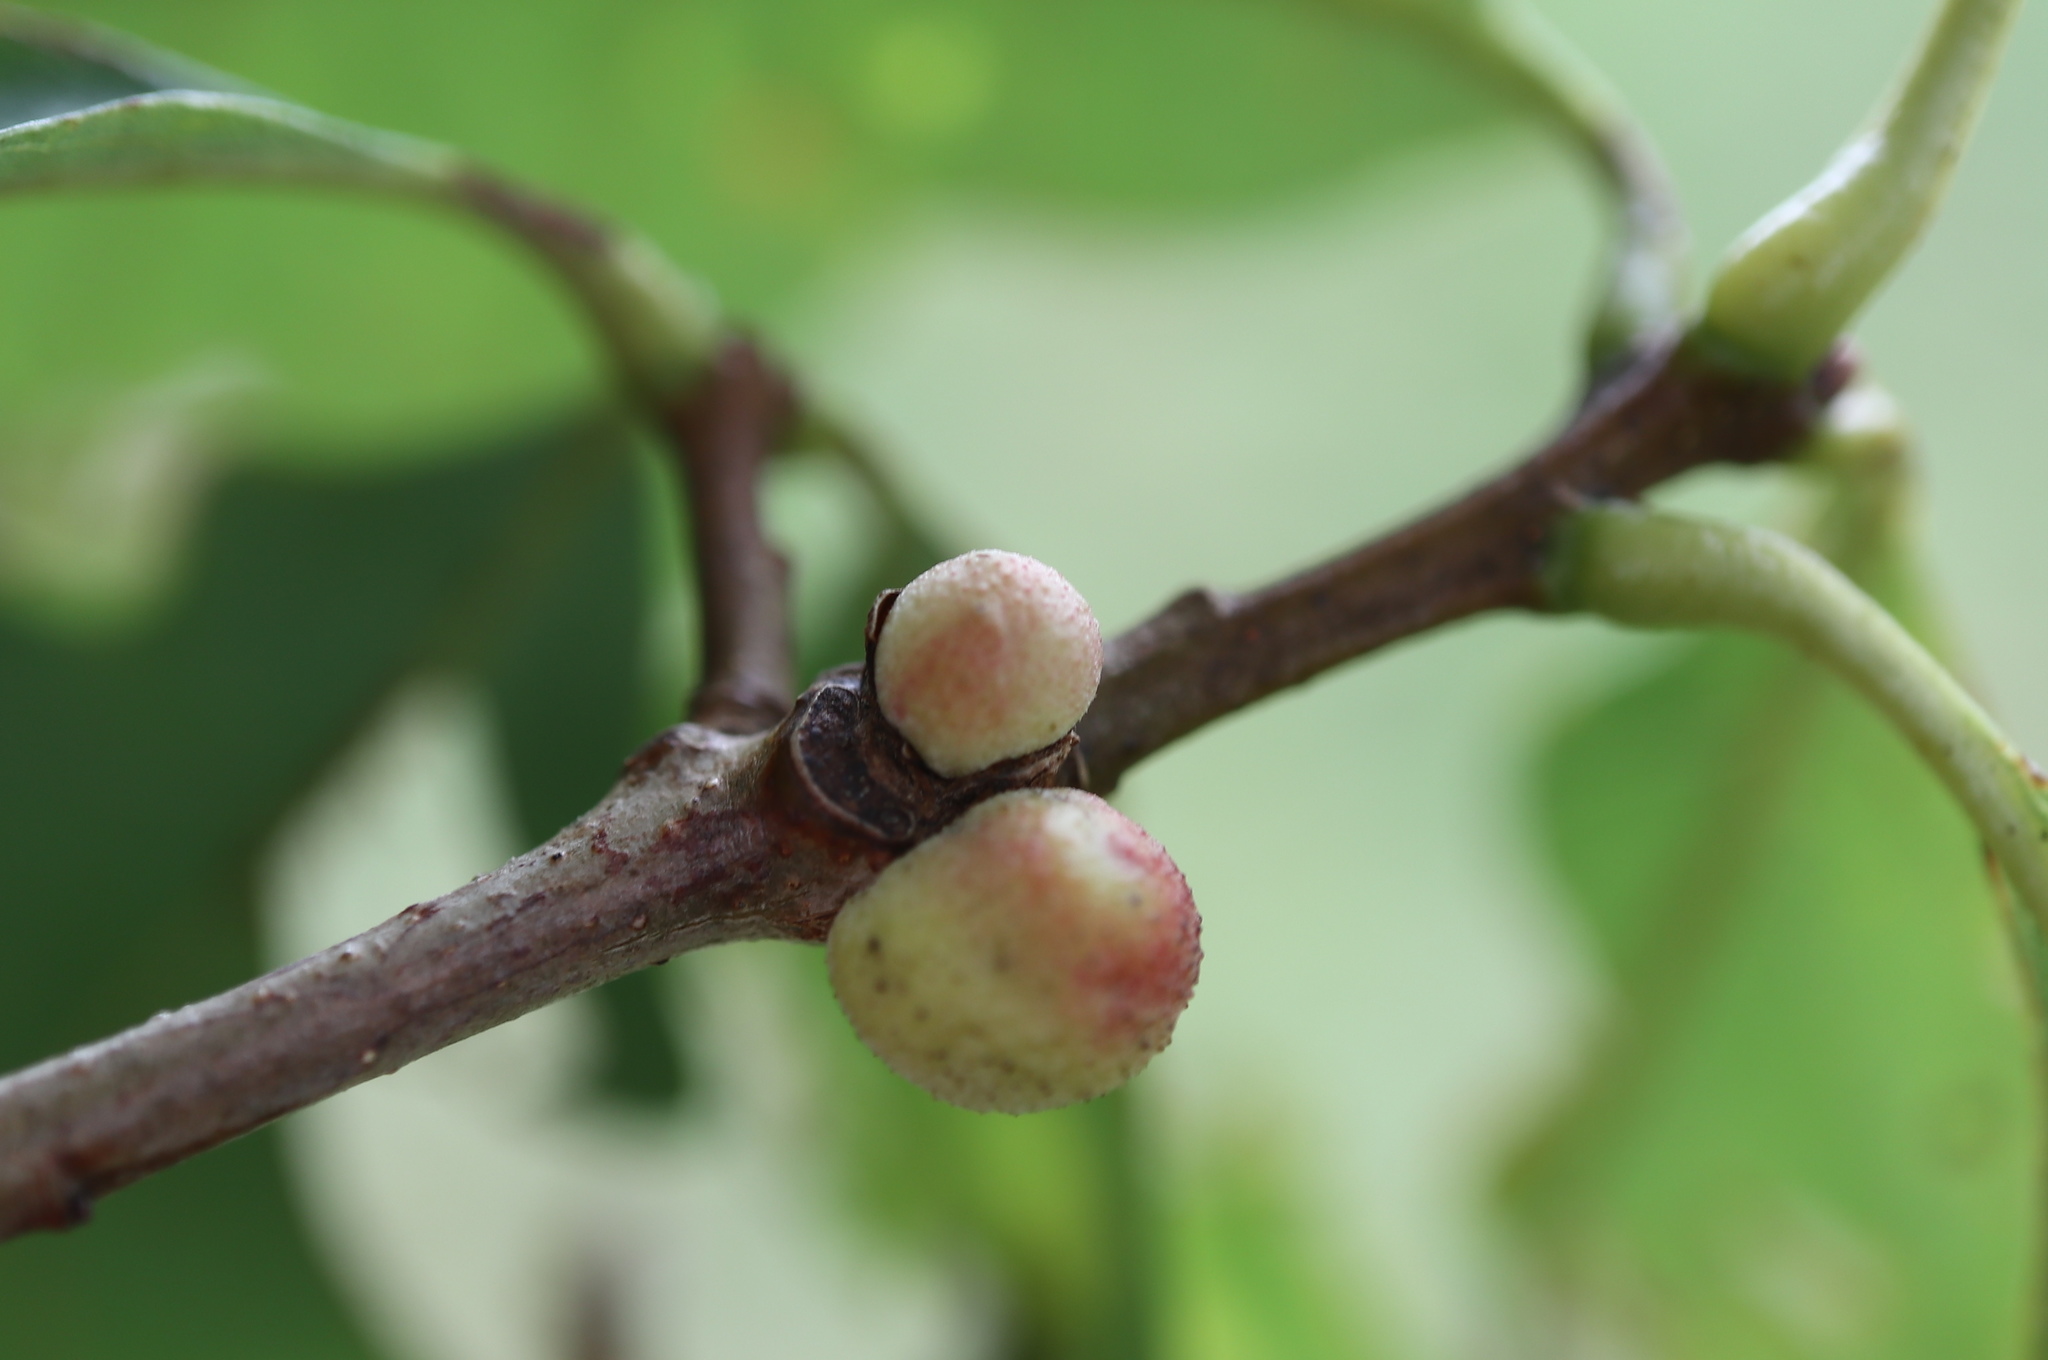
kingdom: Animalia
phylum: Arthropoda
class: Insecta
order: Hymenoptera
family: Cynipidae
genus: Disholcaspis
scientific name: Disholcaspis quercusglobulus
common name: Round bullet gall wasp
